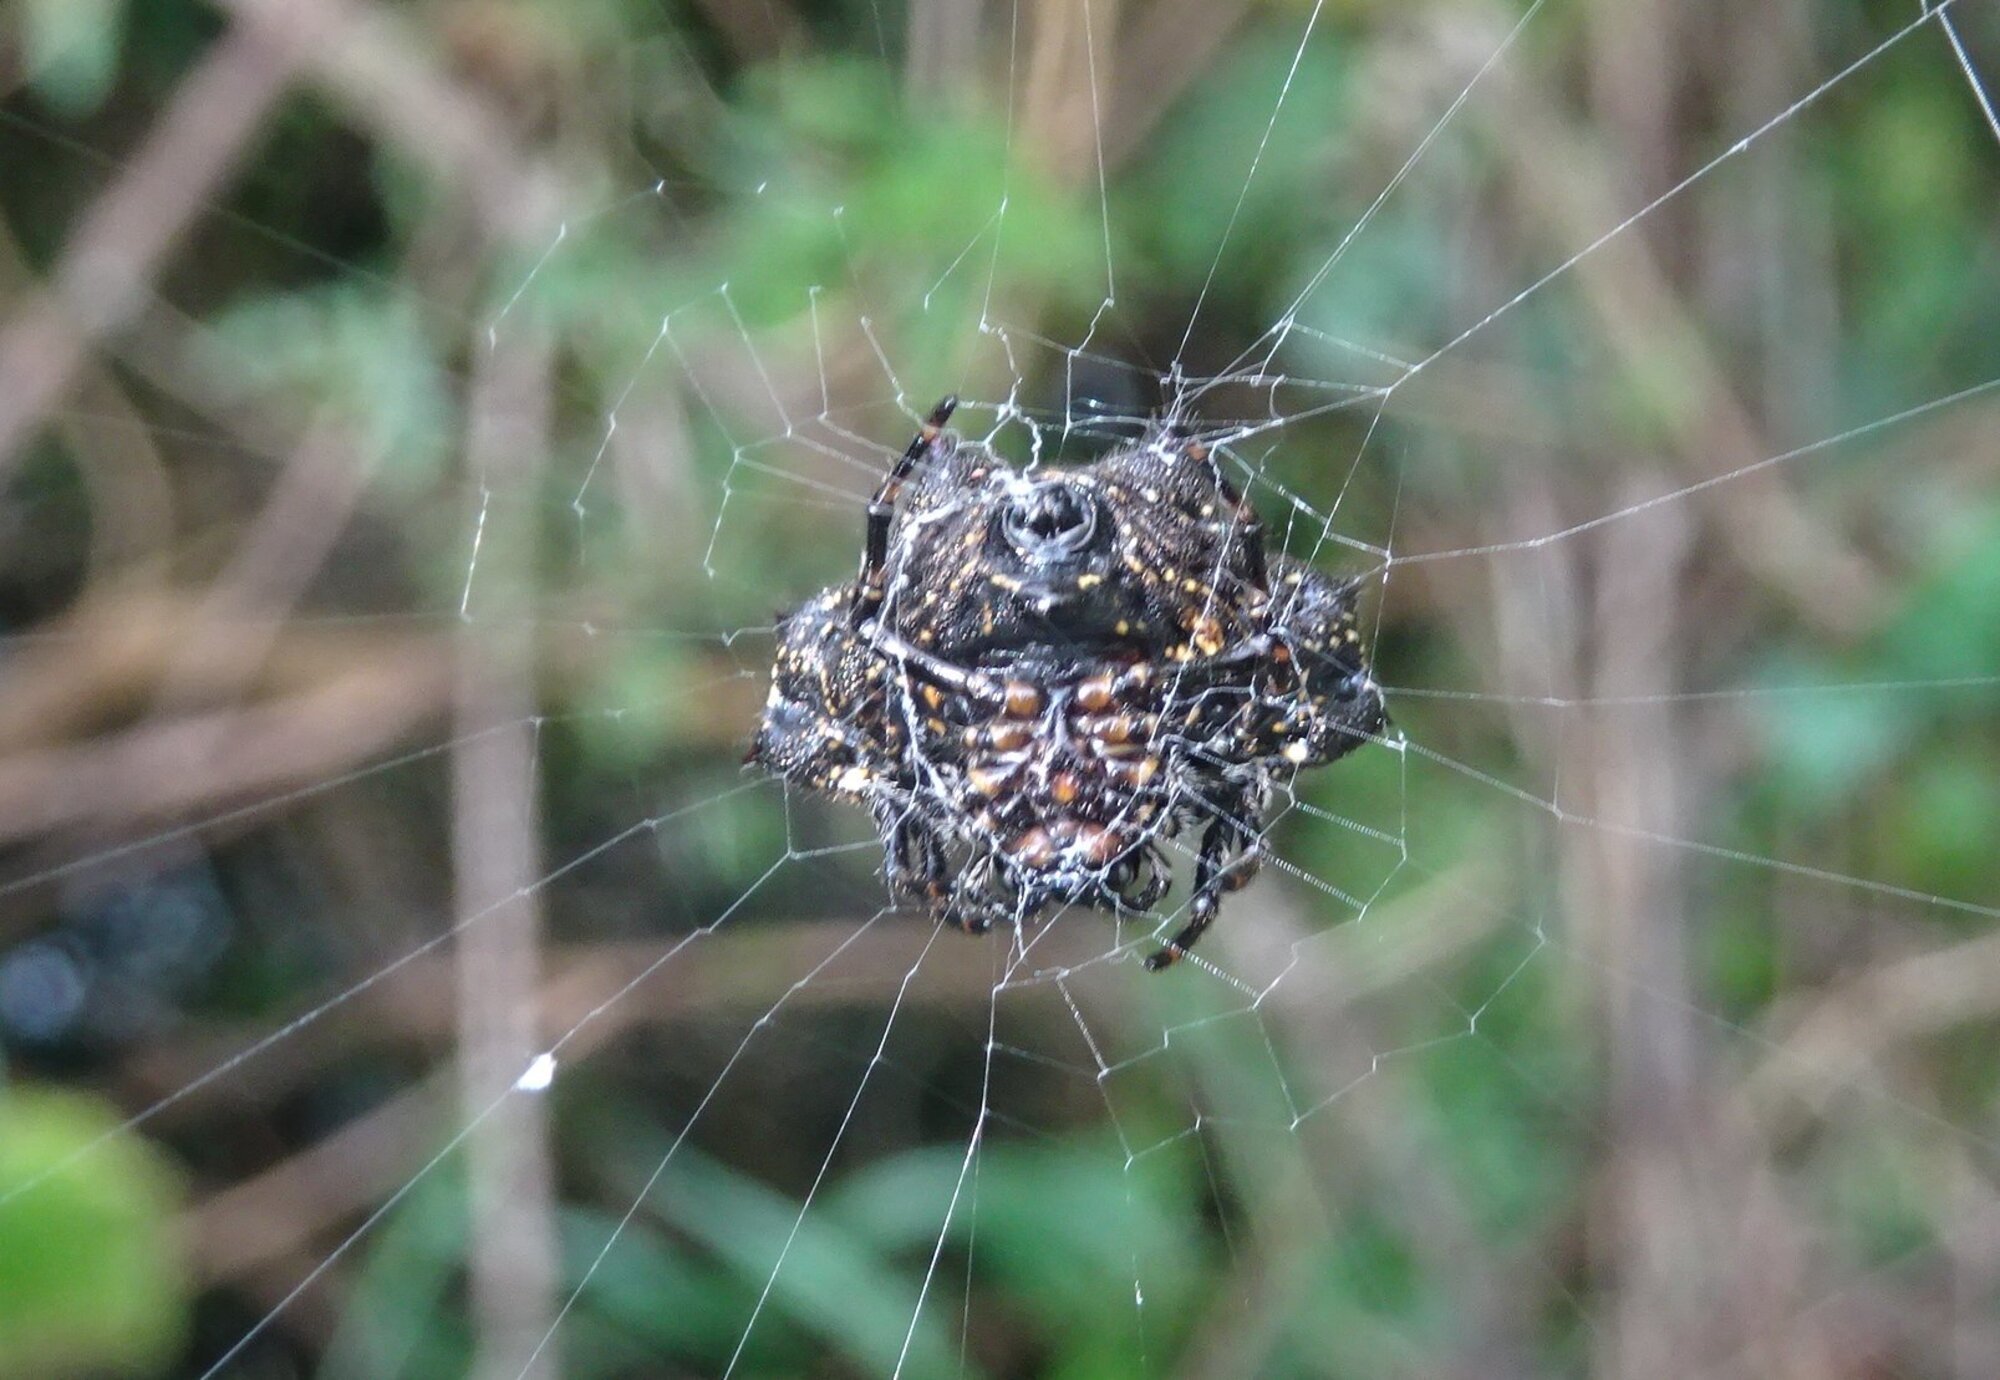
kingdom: Animalia
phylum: Arthropoda
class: Arachnida
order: Araneae
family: Araneidae
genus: Gasteracantha
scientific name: Gasteracantha cancriformis
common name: Orb weavers
